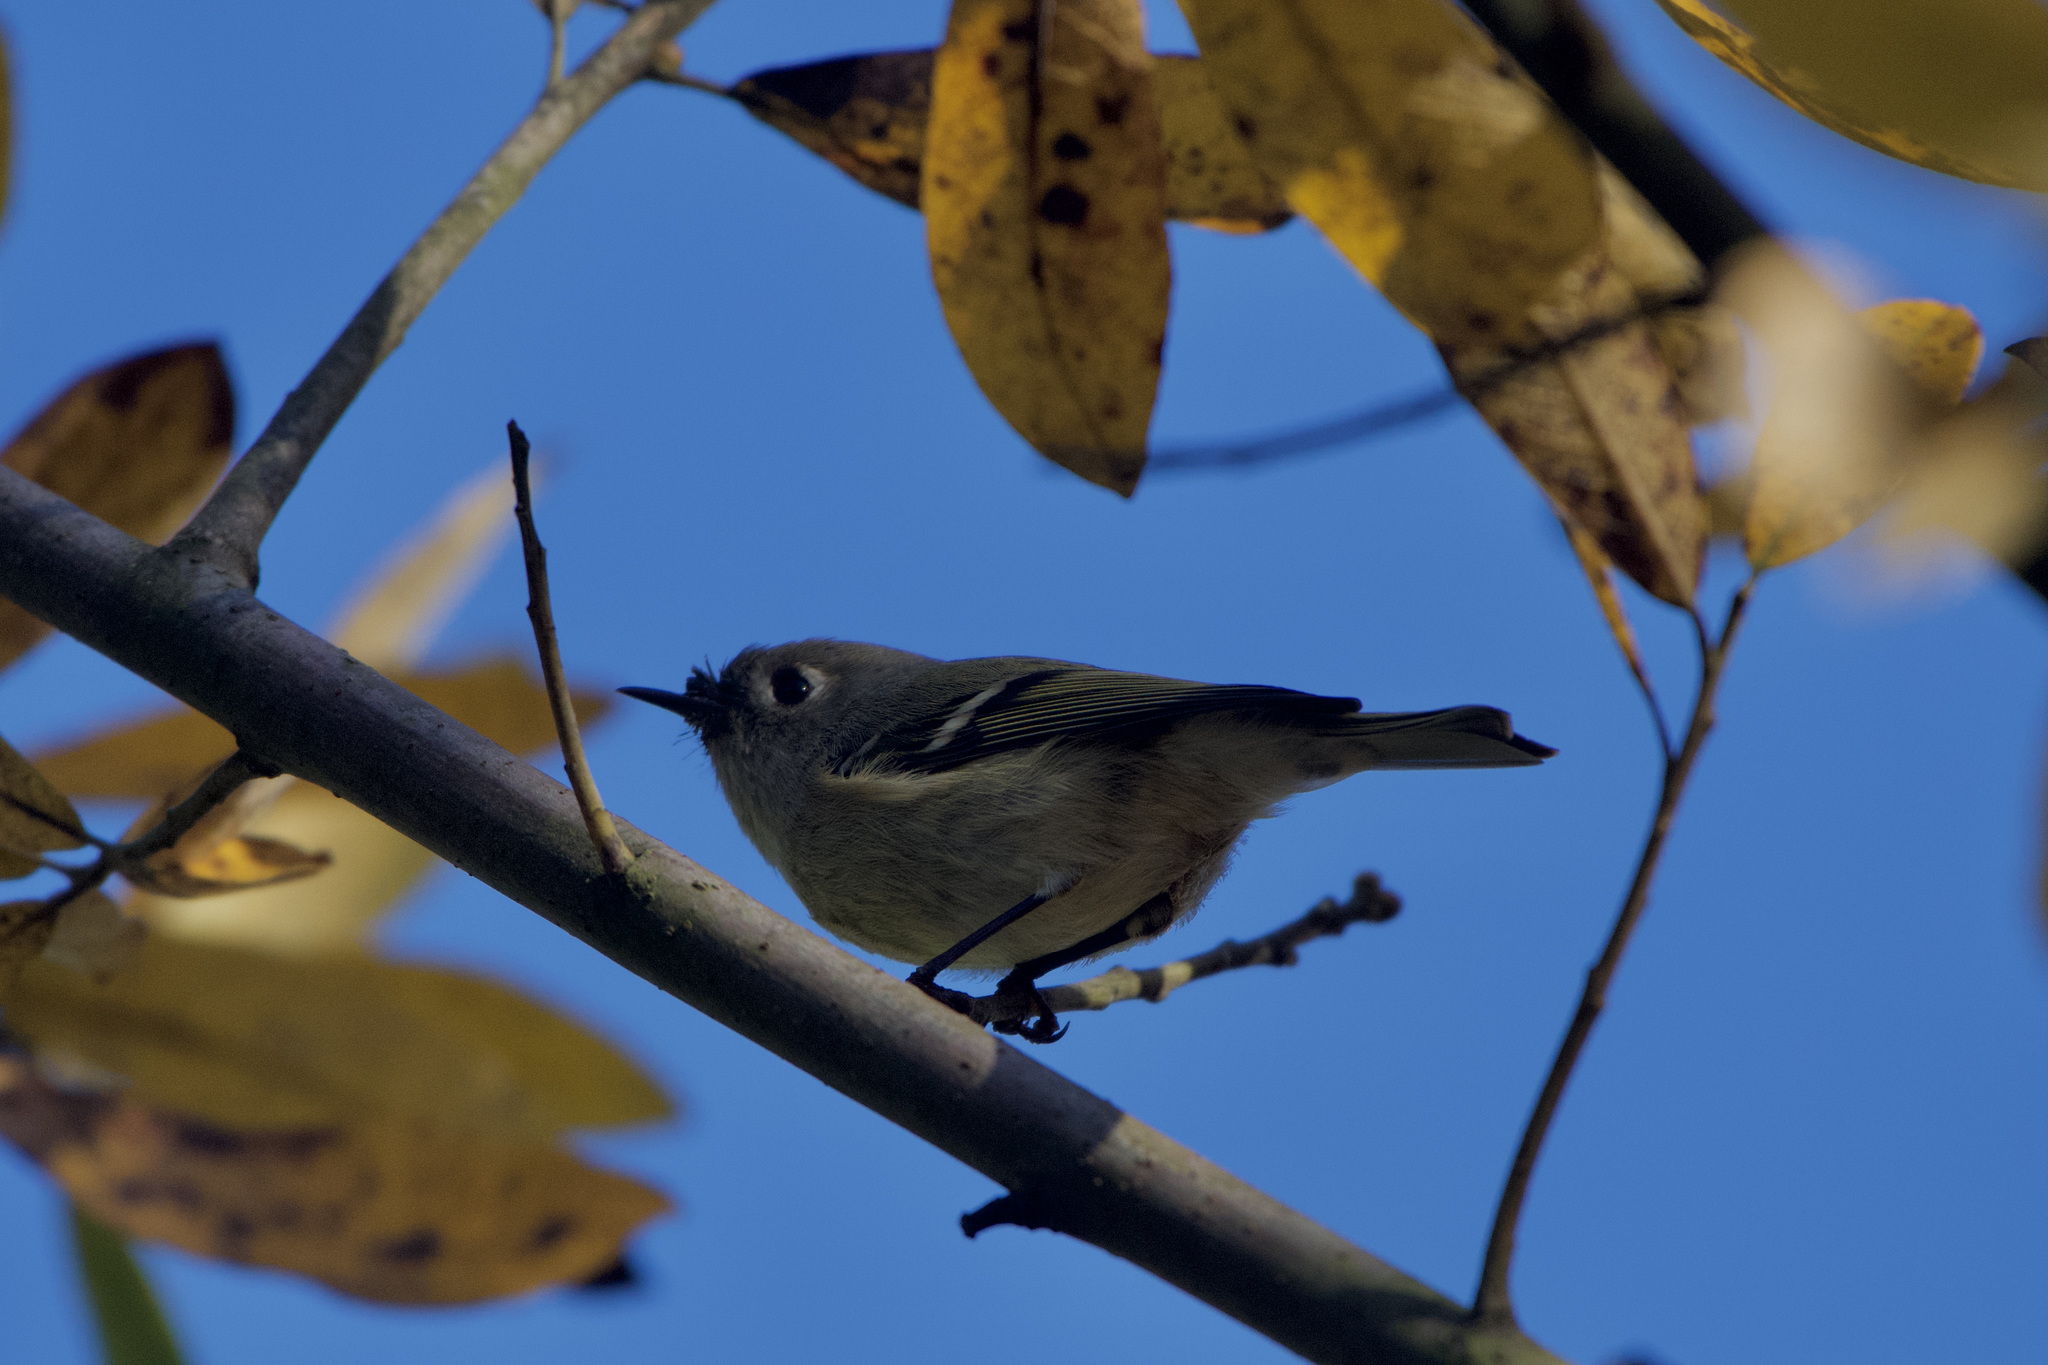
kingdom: Animalia
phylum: Chordata
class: Aves
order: Passeriformes
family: Regulidae
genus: Regulus
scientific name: Regulus calendula
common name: Ruby-crowned kinglet
